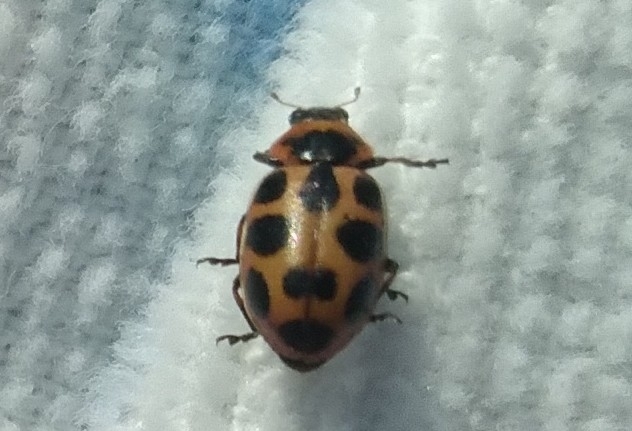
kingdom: Animalia
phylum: Arthropoda
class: Insecta
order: Coleoptera
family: Coccinellidae
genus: Naemia
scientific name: Naemia seriata
